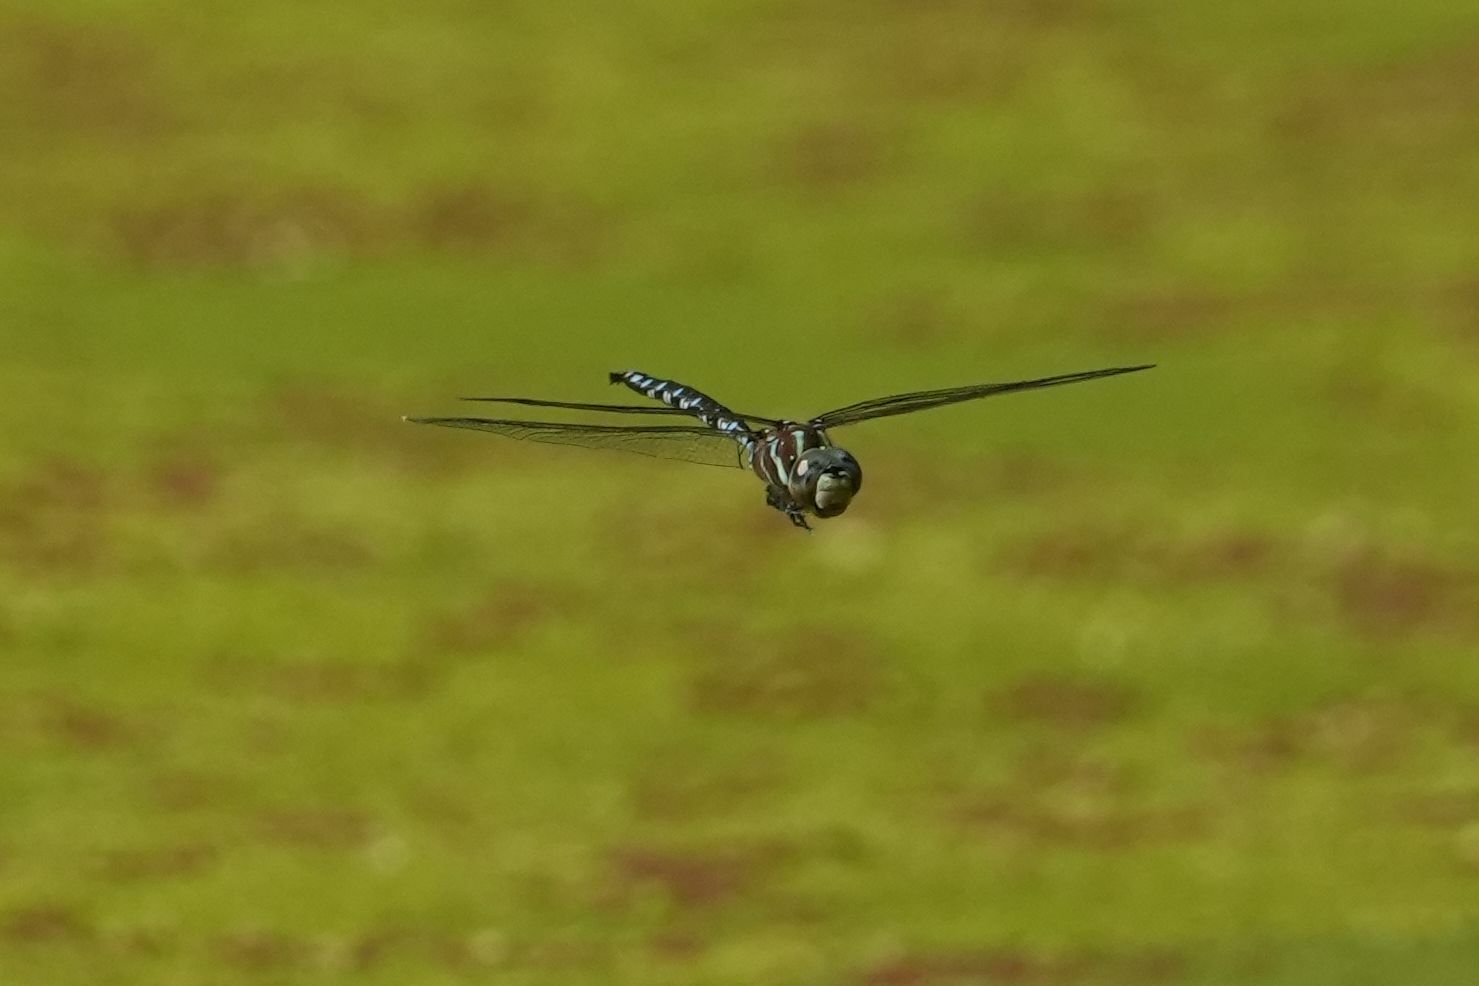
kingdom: Animalia
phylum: Arthropoda
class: Insecta
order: Odonata
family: Aeshnidae
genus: Aeshna
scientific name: Aeshna constricta
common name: Lance-tipped darner
